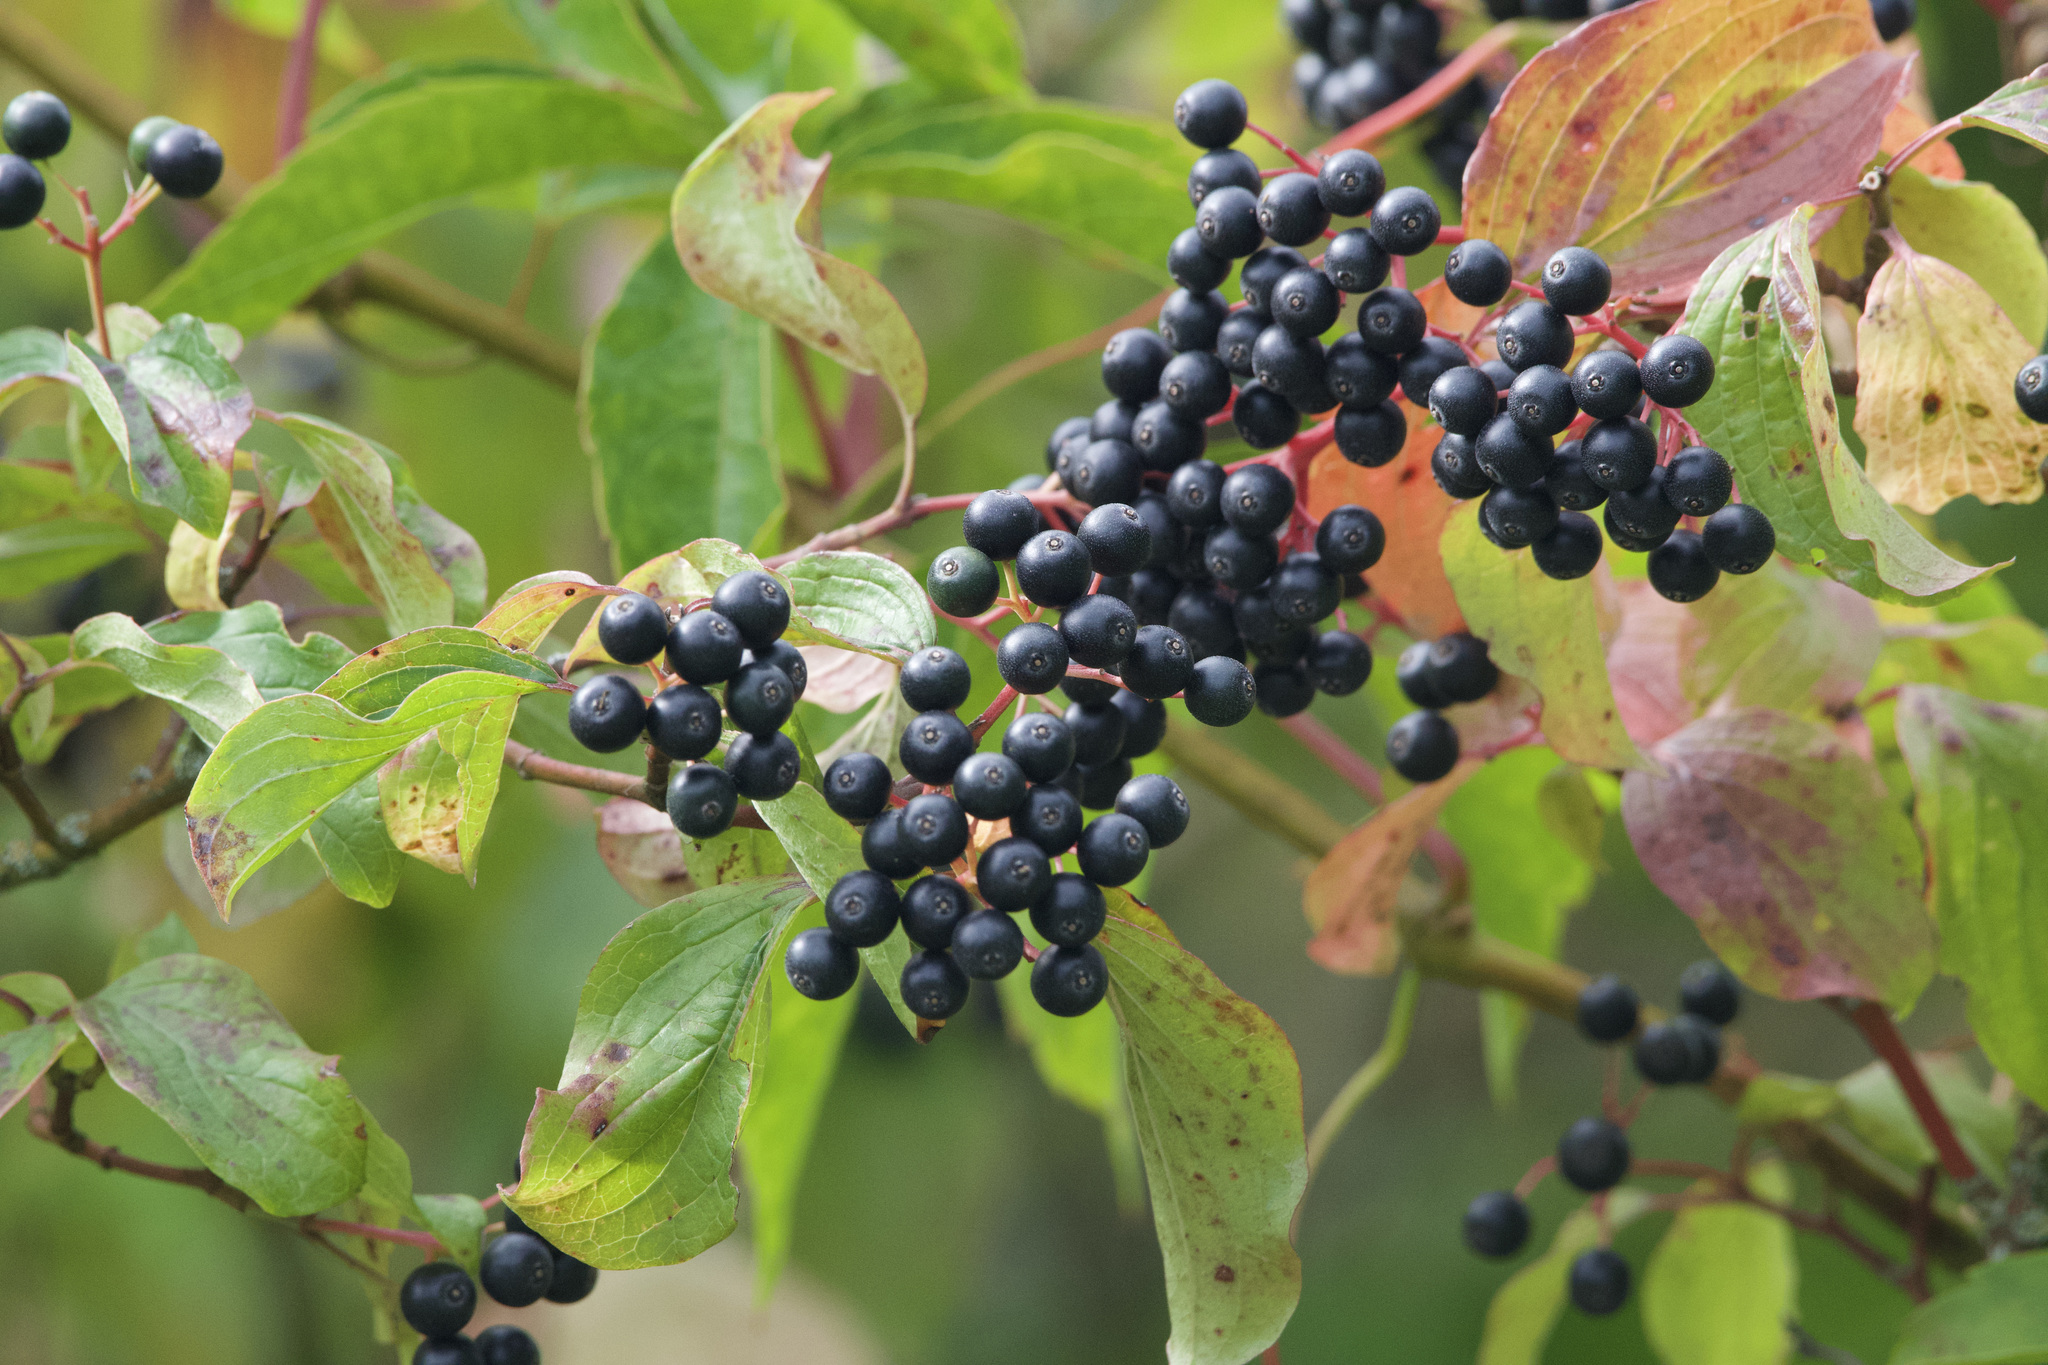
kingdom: Plantae
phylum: Tracheophyta
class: Magnoliopsida
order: Cornales
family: Cornaceae
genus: Cornus
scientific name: Cornus sanguinea
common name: Dogwood
